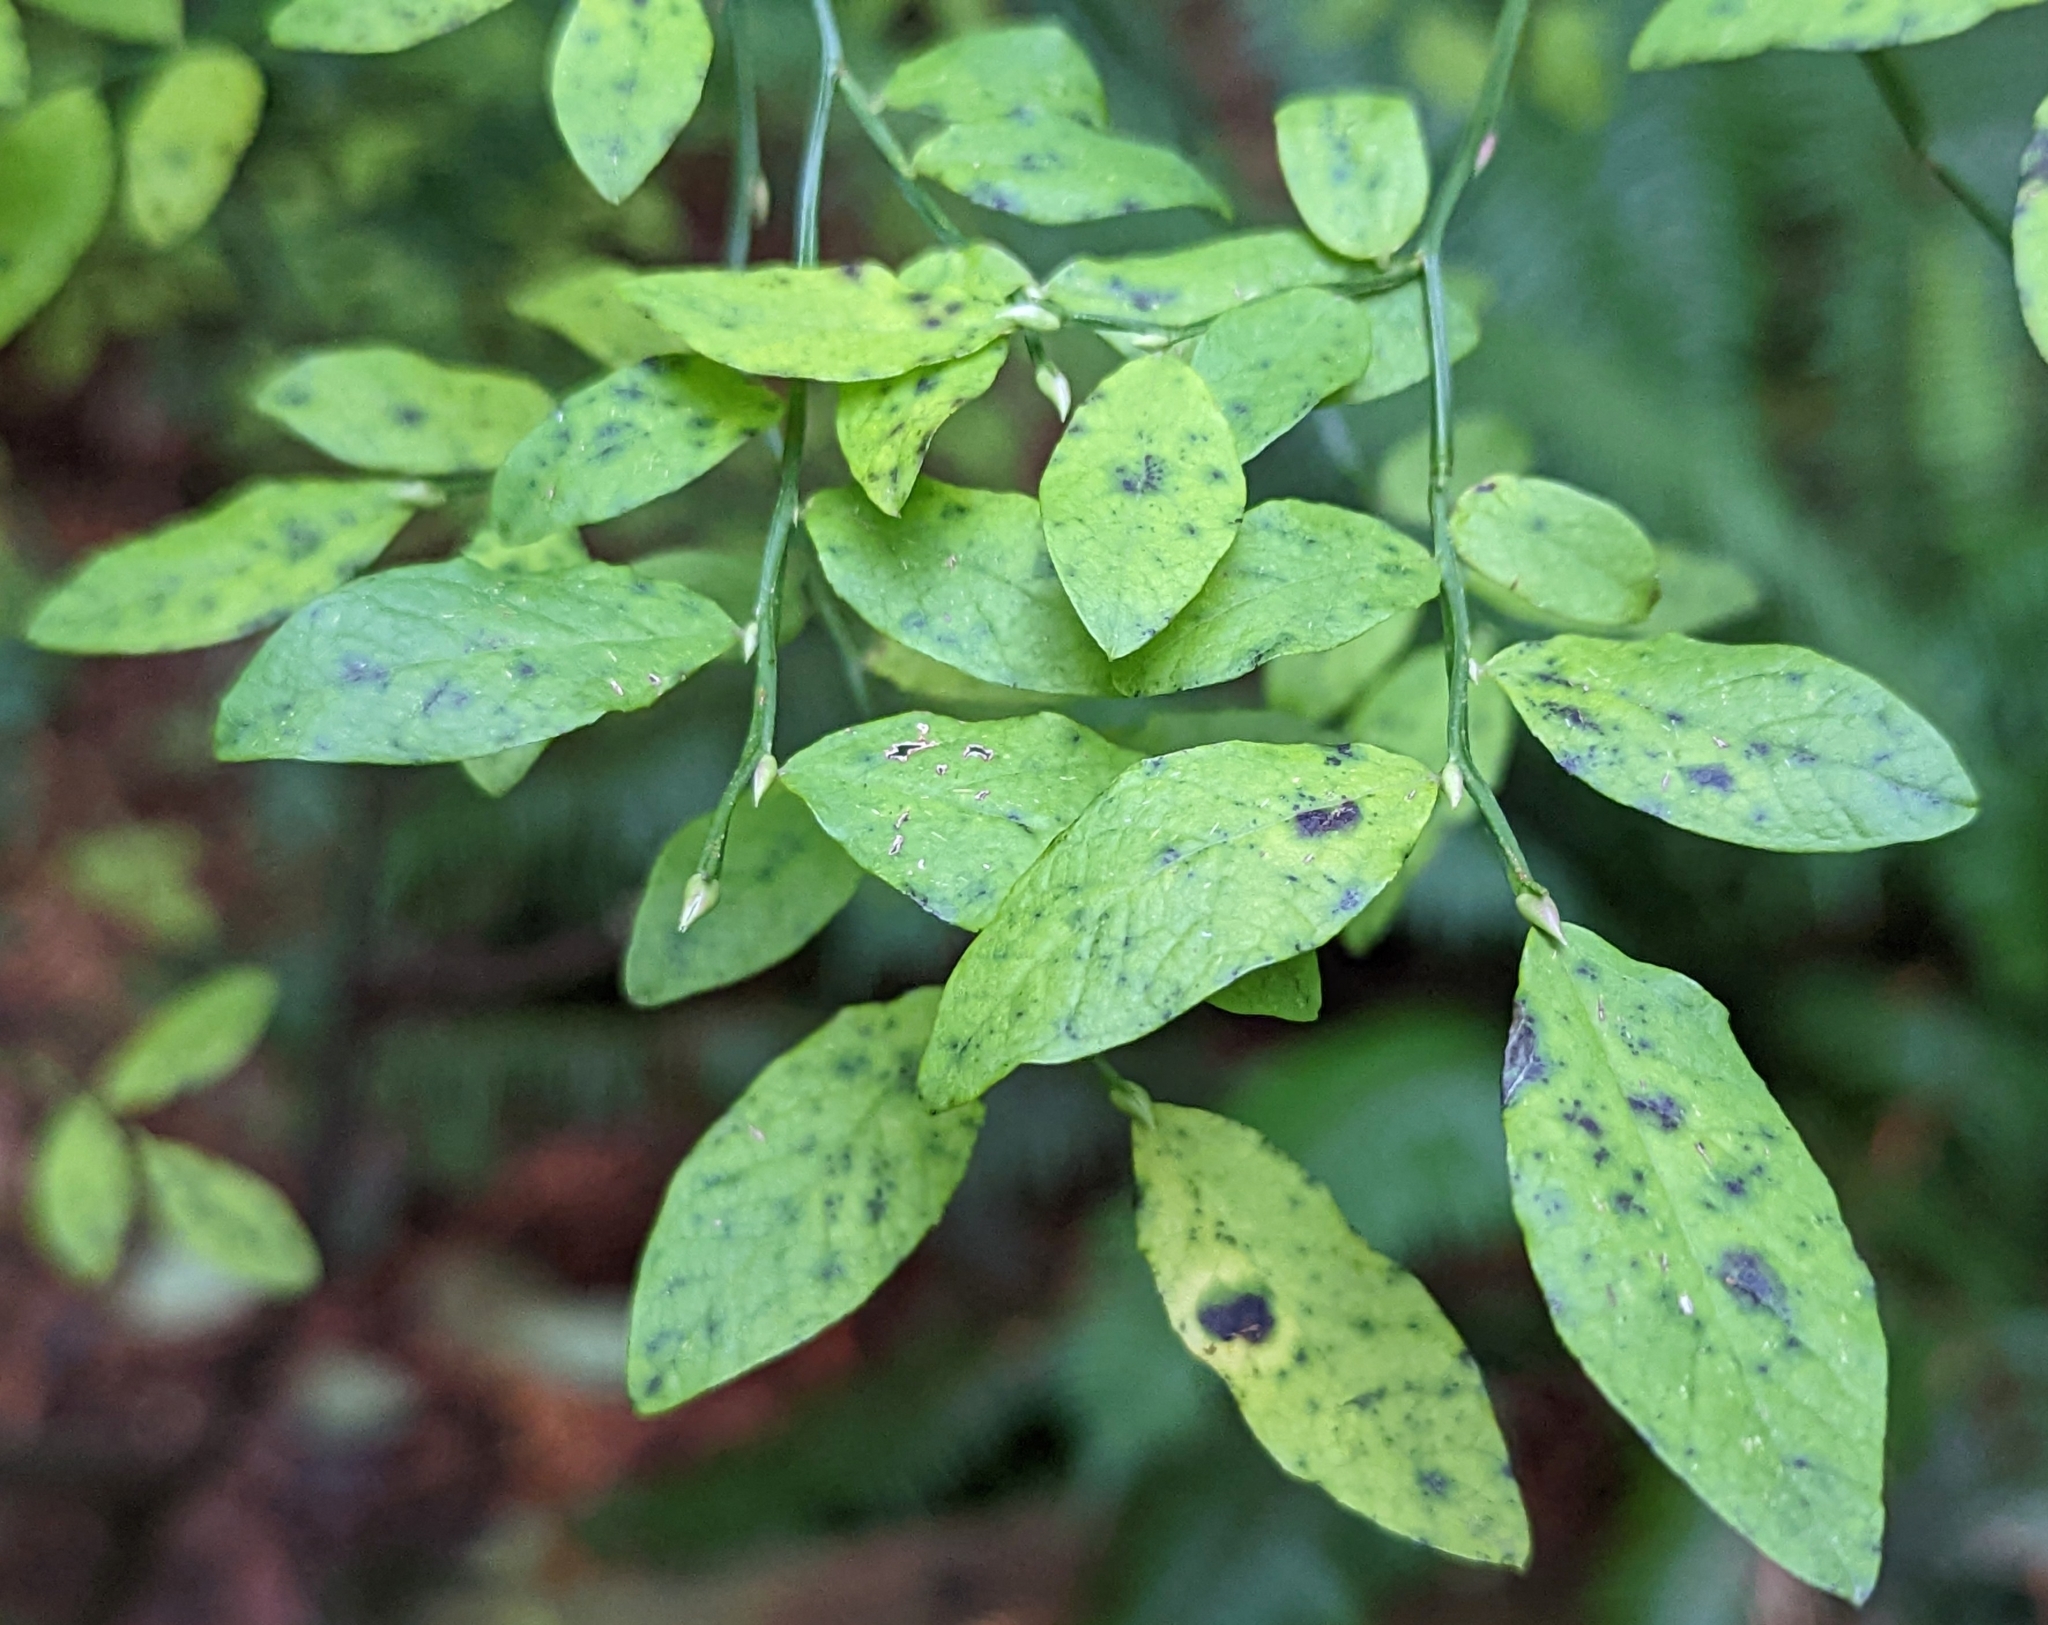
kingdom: Plantae
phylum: Tracheophyta
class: Magnoliopsida
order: Ericales
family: Ericaceae
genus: Vaccinium
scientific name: Vaccinium parvifolium
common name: Red-huckleberry
